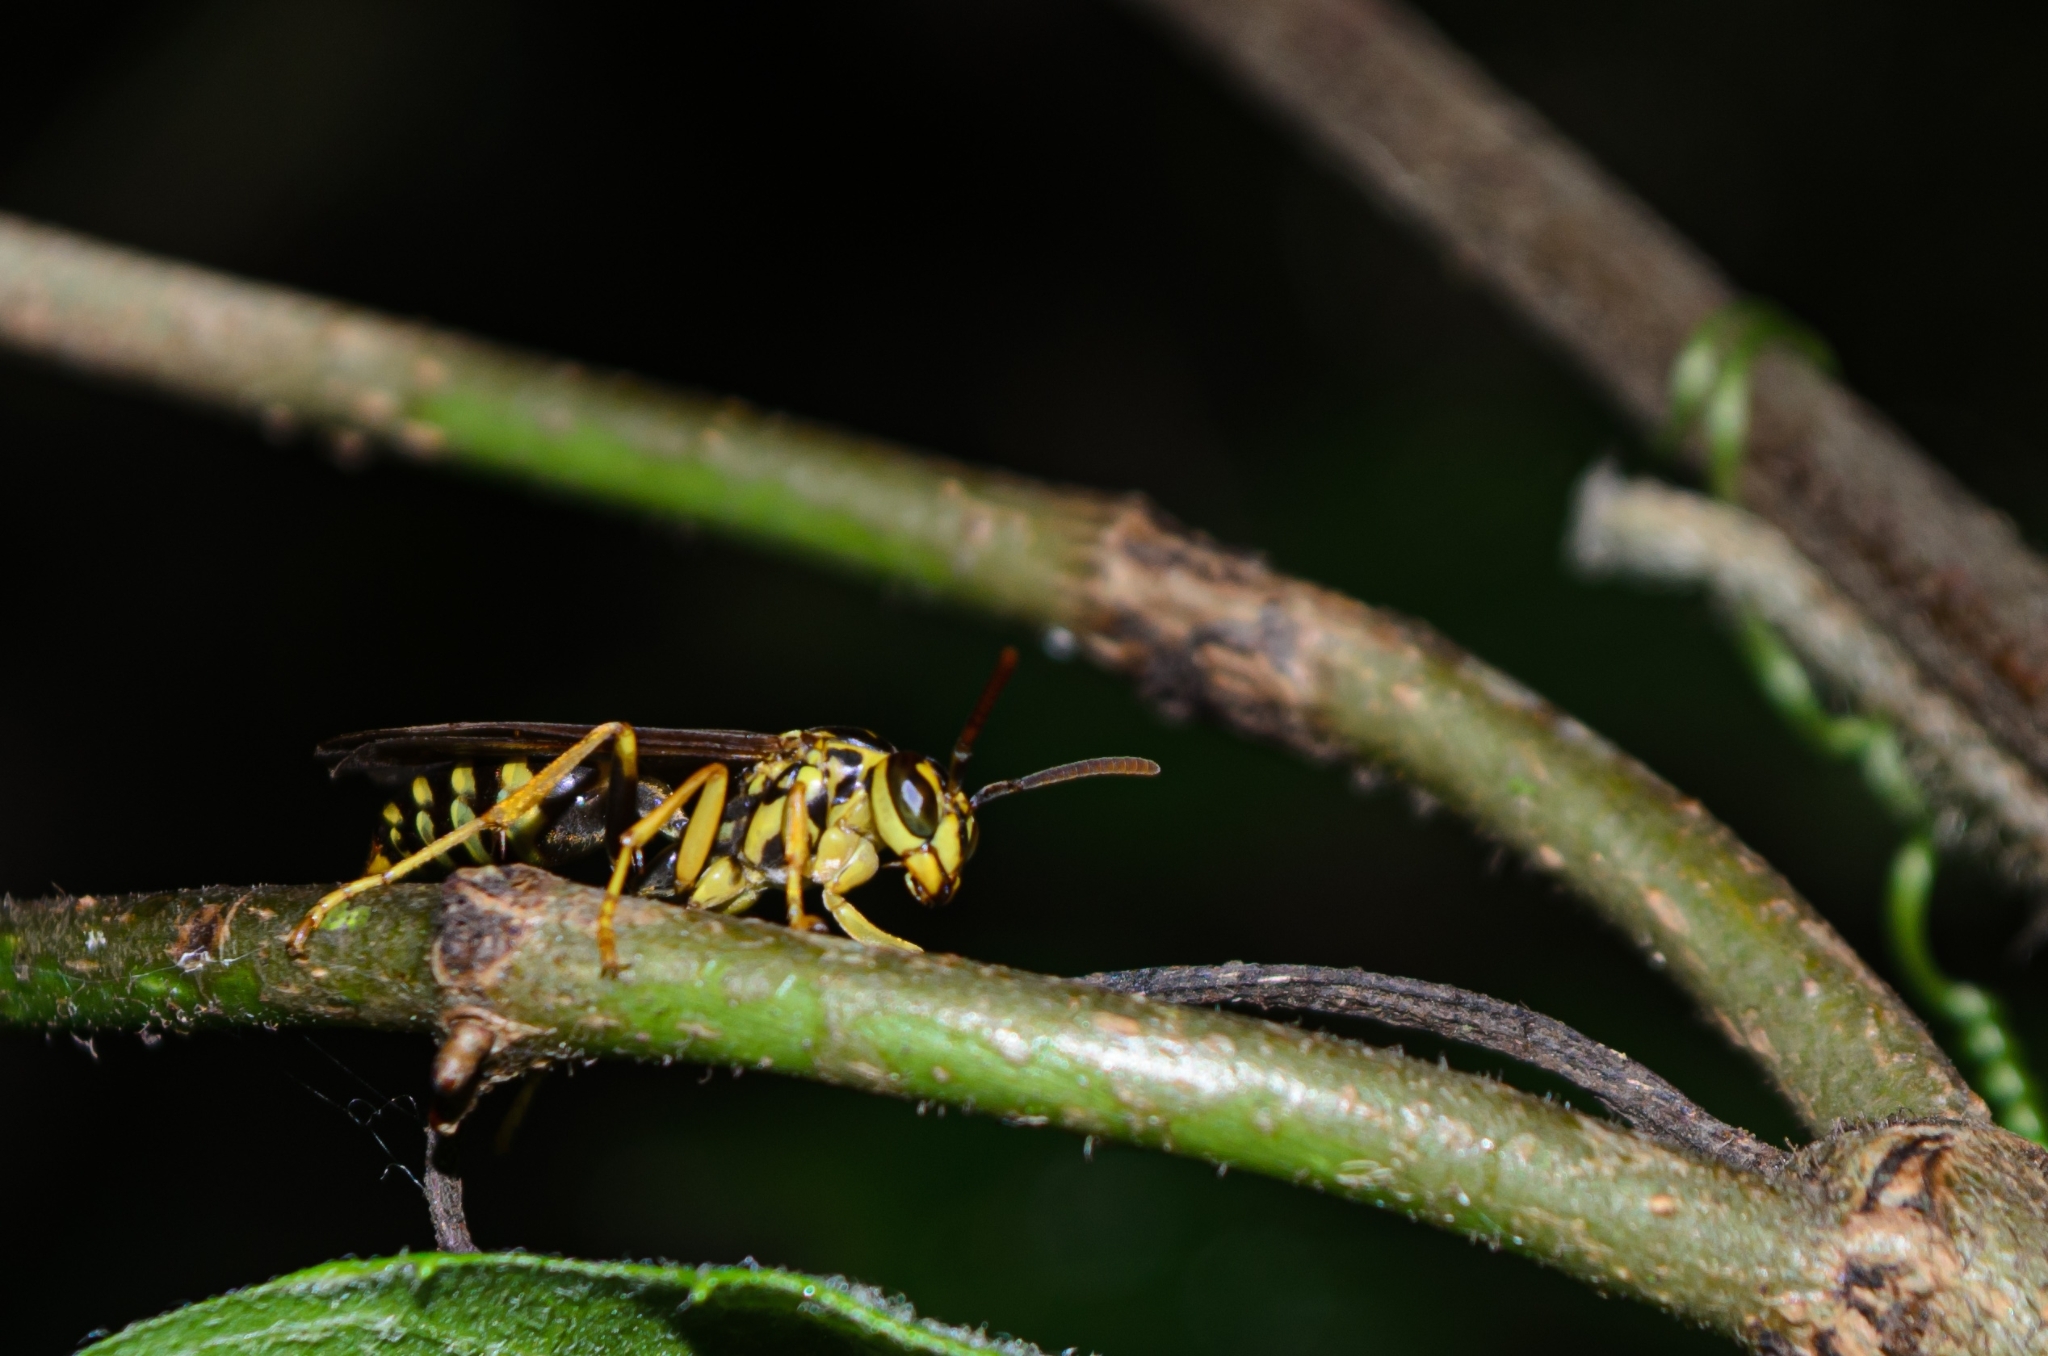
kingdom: Animalia
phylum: Arthropoda
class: Insecta
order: Hymenoptera
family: Vespidae
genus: Agelaia
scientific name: Agelaia multipicta
